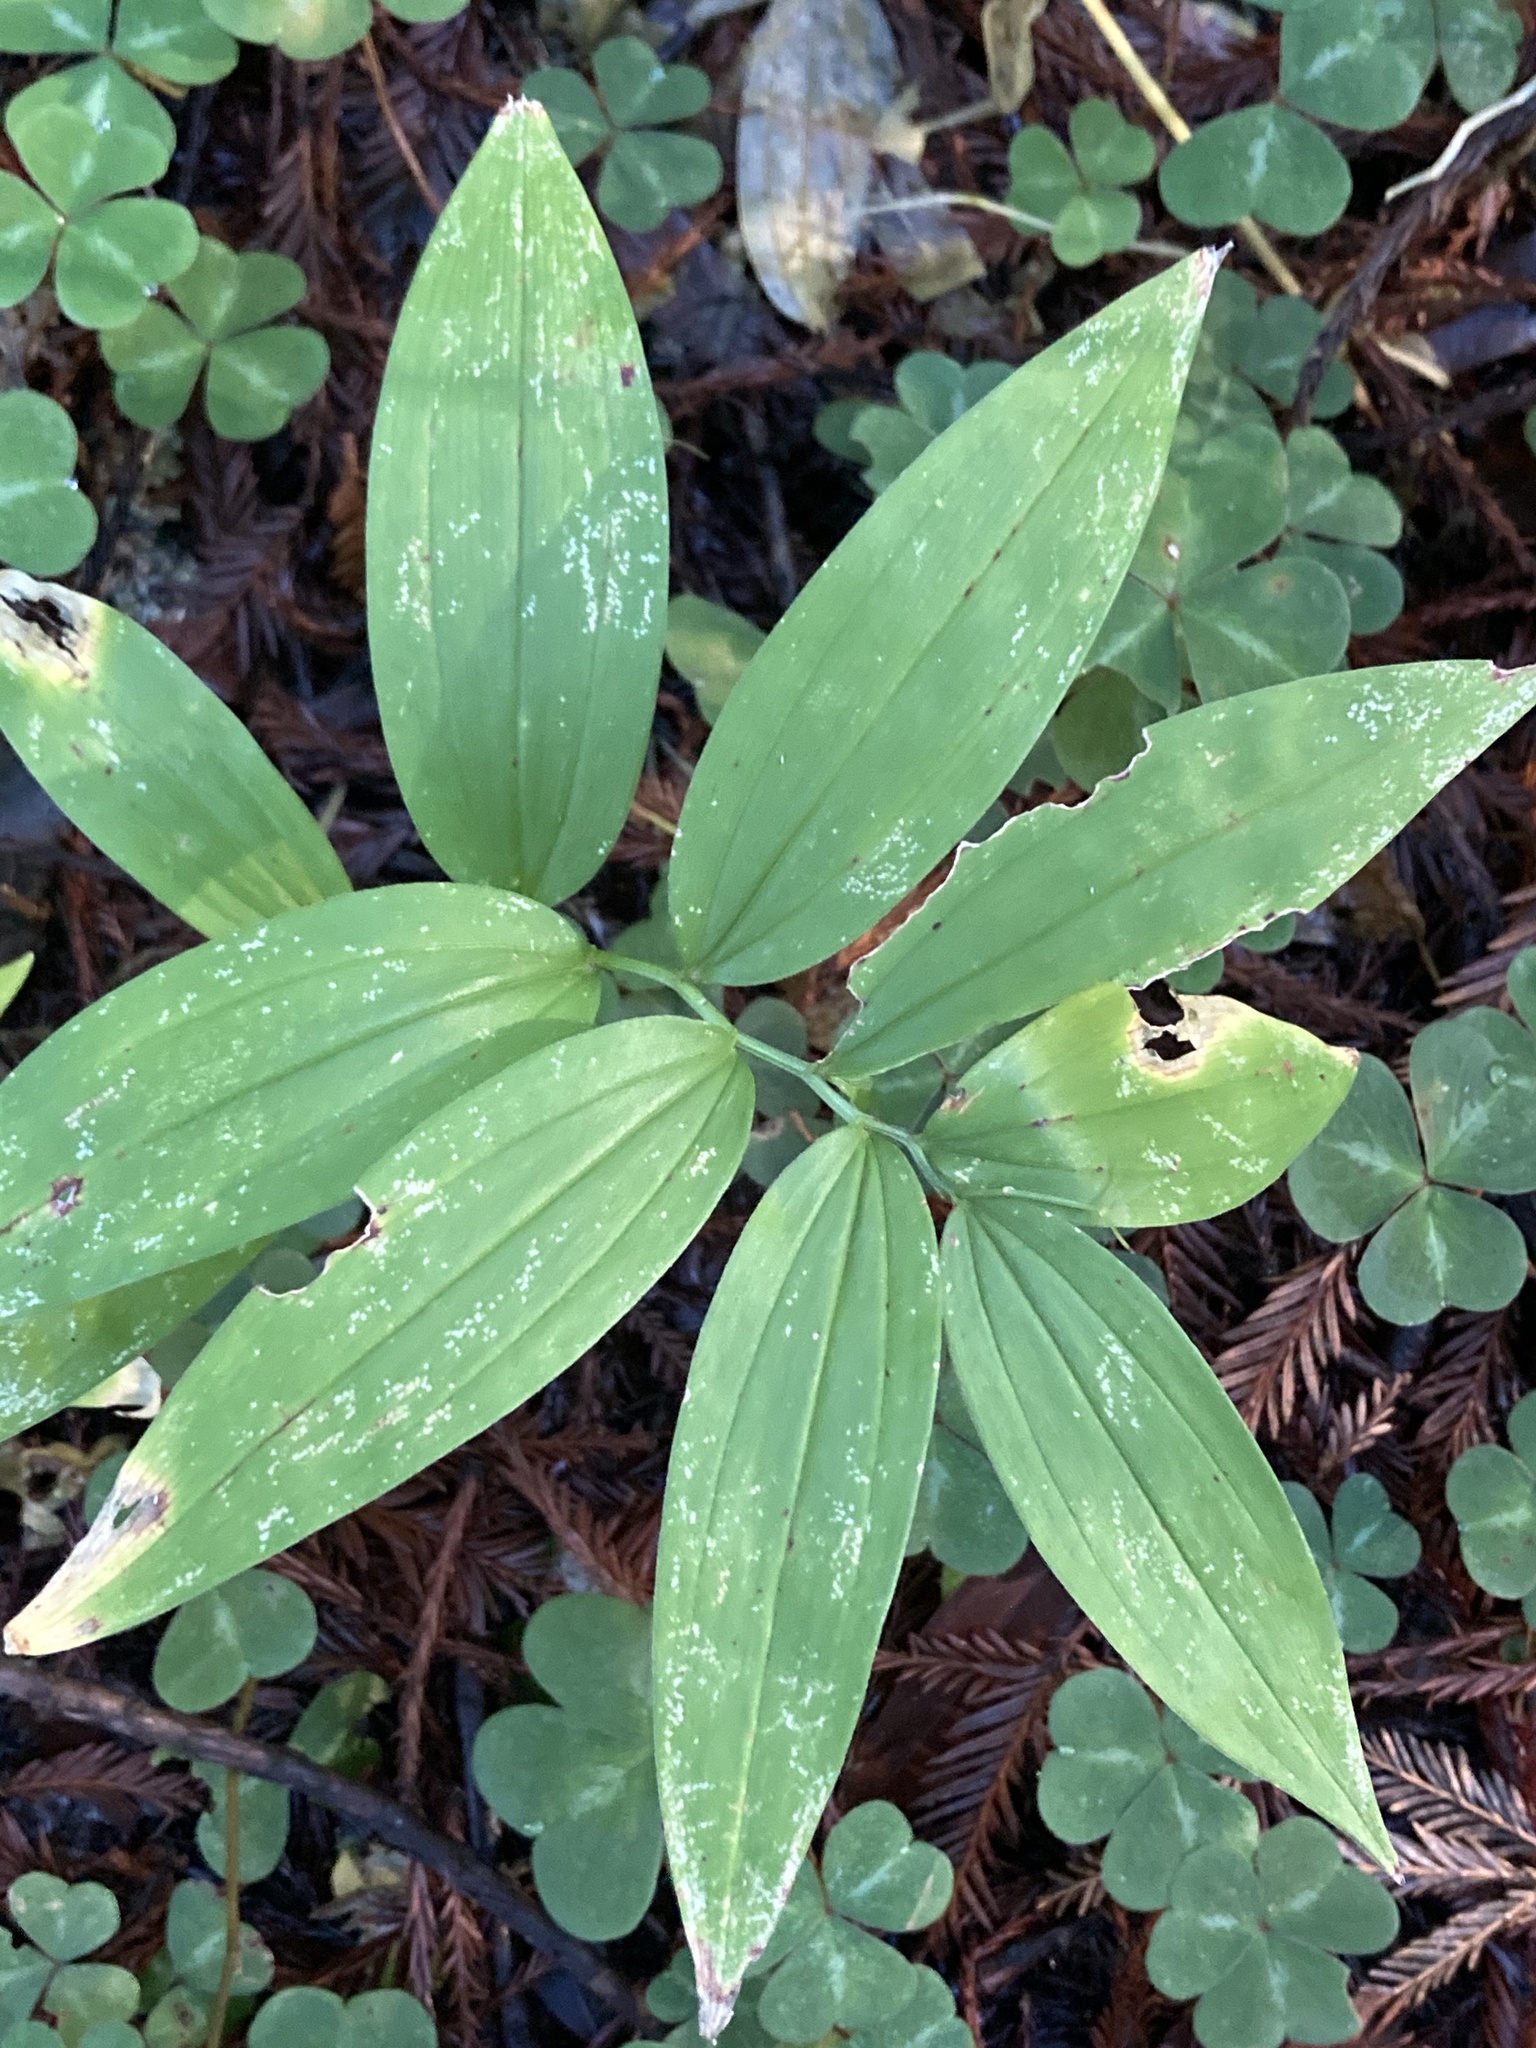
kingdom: Plantae
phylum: Tracheophyta
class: Liliopsida
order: Asparagales
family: Asparagaceae
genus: Maianthemum
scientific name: Maianthemum stellatum
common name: Little false solomon's seal
